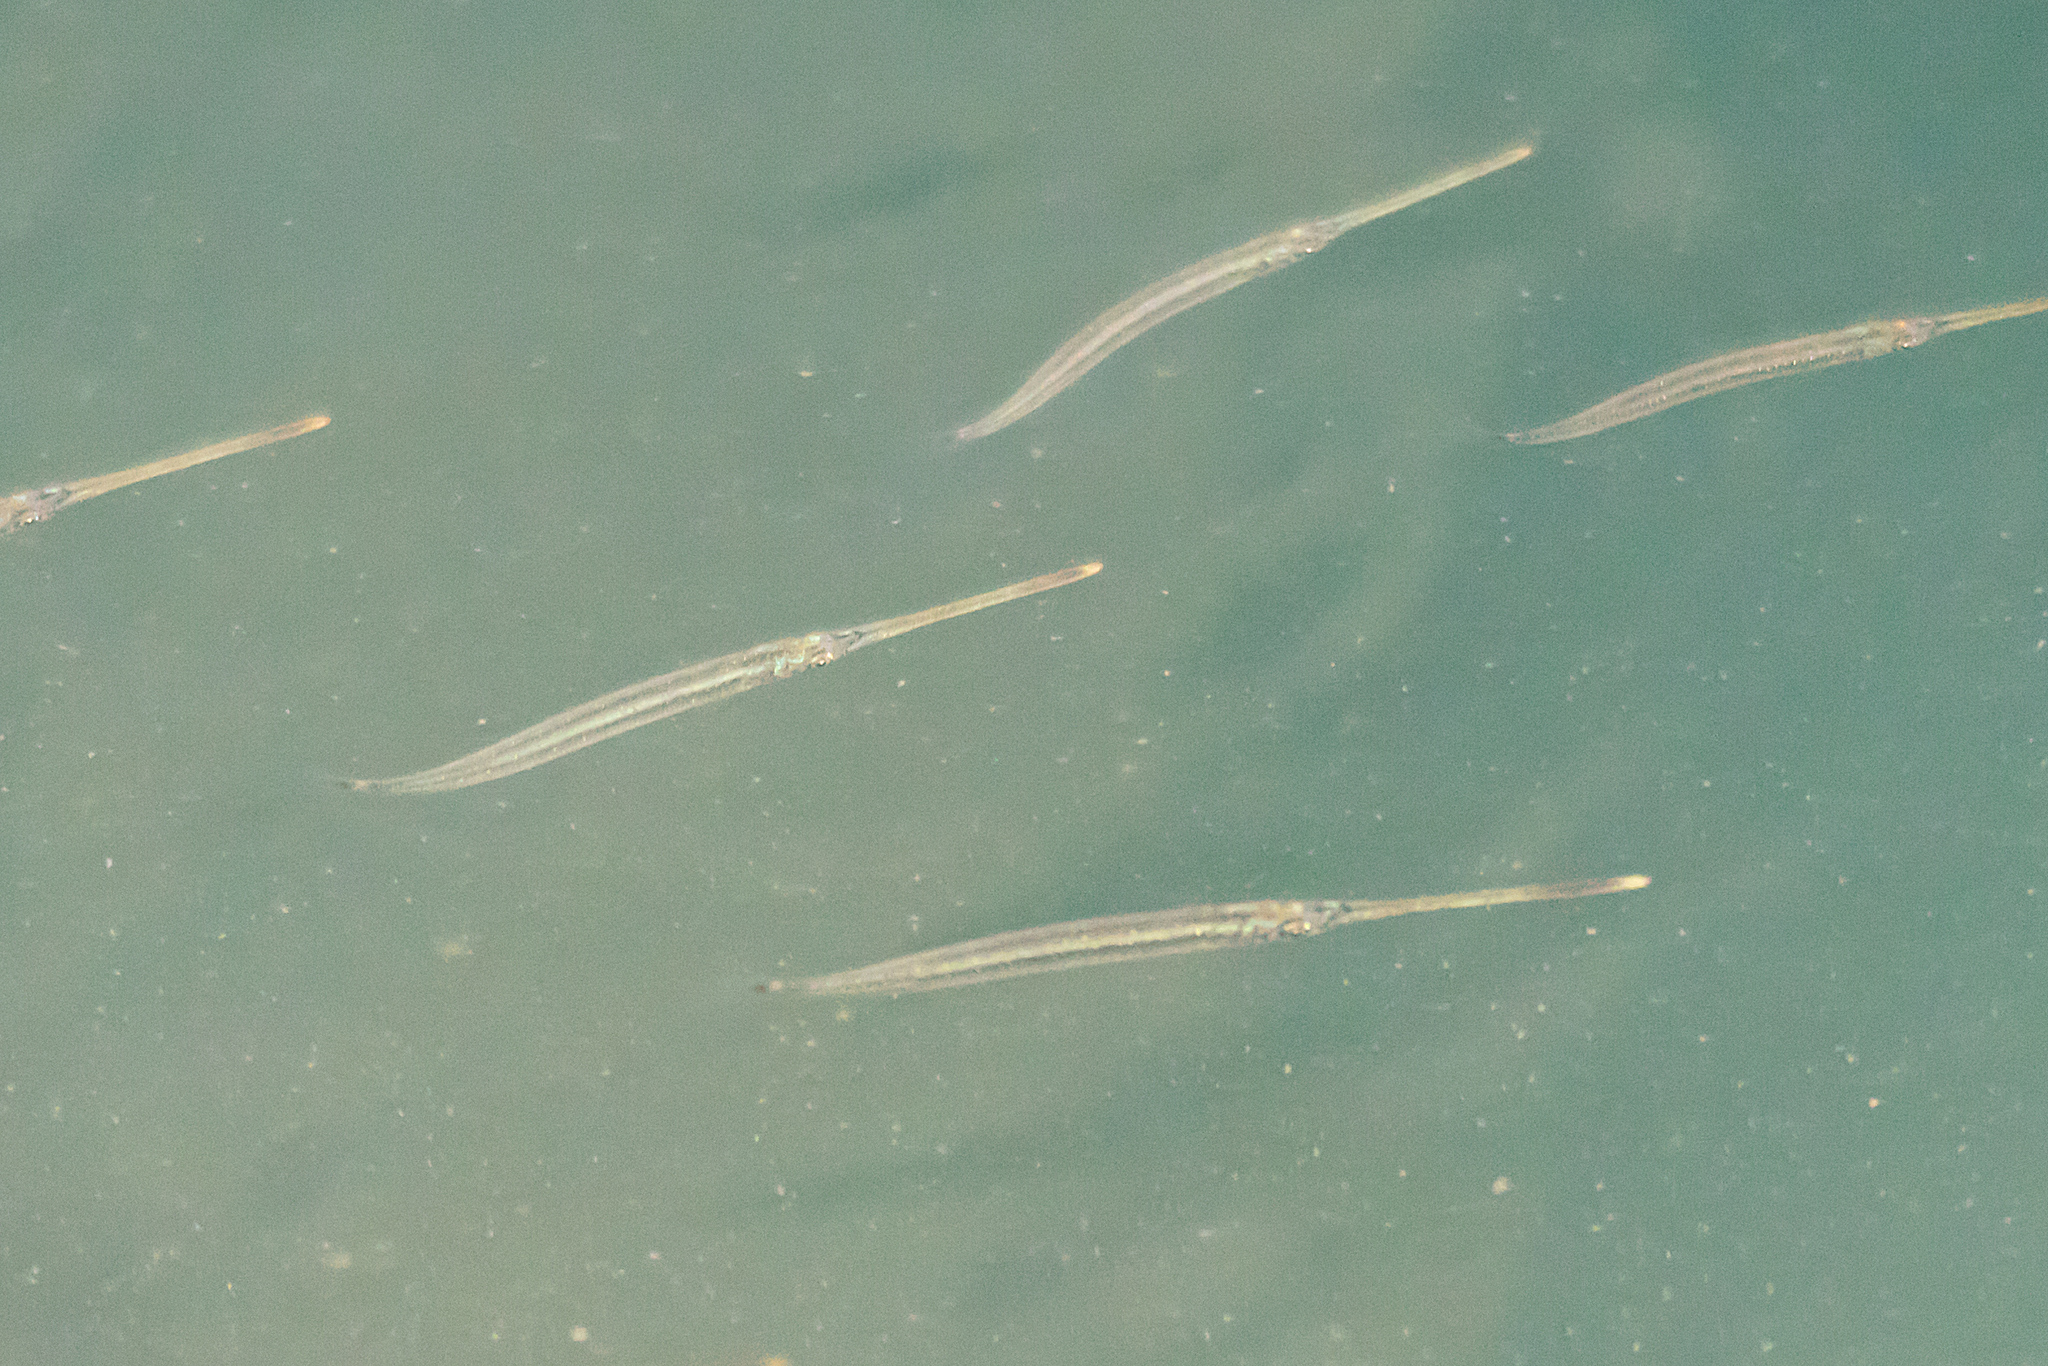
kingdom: Animalia
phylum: Chordata
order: Beloniformes
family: Zenarchopteridae
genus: Zenarchopterus
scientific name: Zenarchopterus buffonis
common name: Buffon's river-garfish
